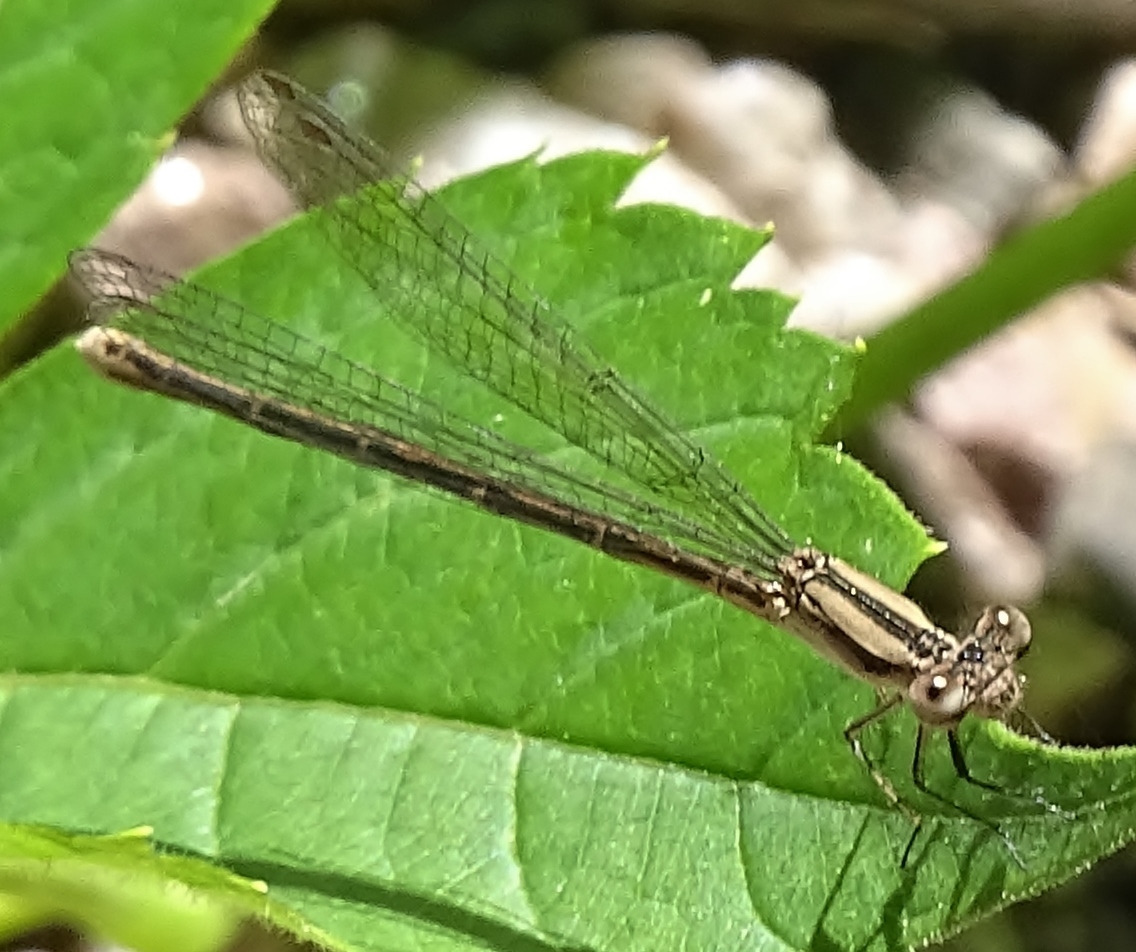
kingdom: Animalia
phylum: Arthropoda
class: Insecta
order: Odonata
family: Coenagrionidae
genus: Argia
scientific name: Argia fumipennis
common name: Variable dancer
